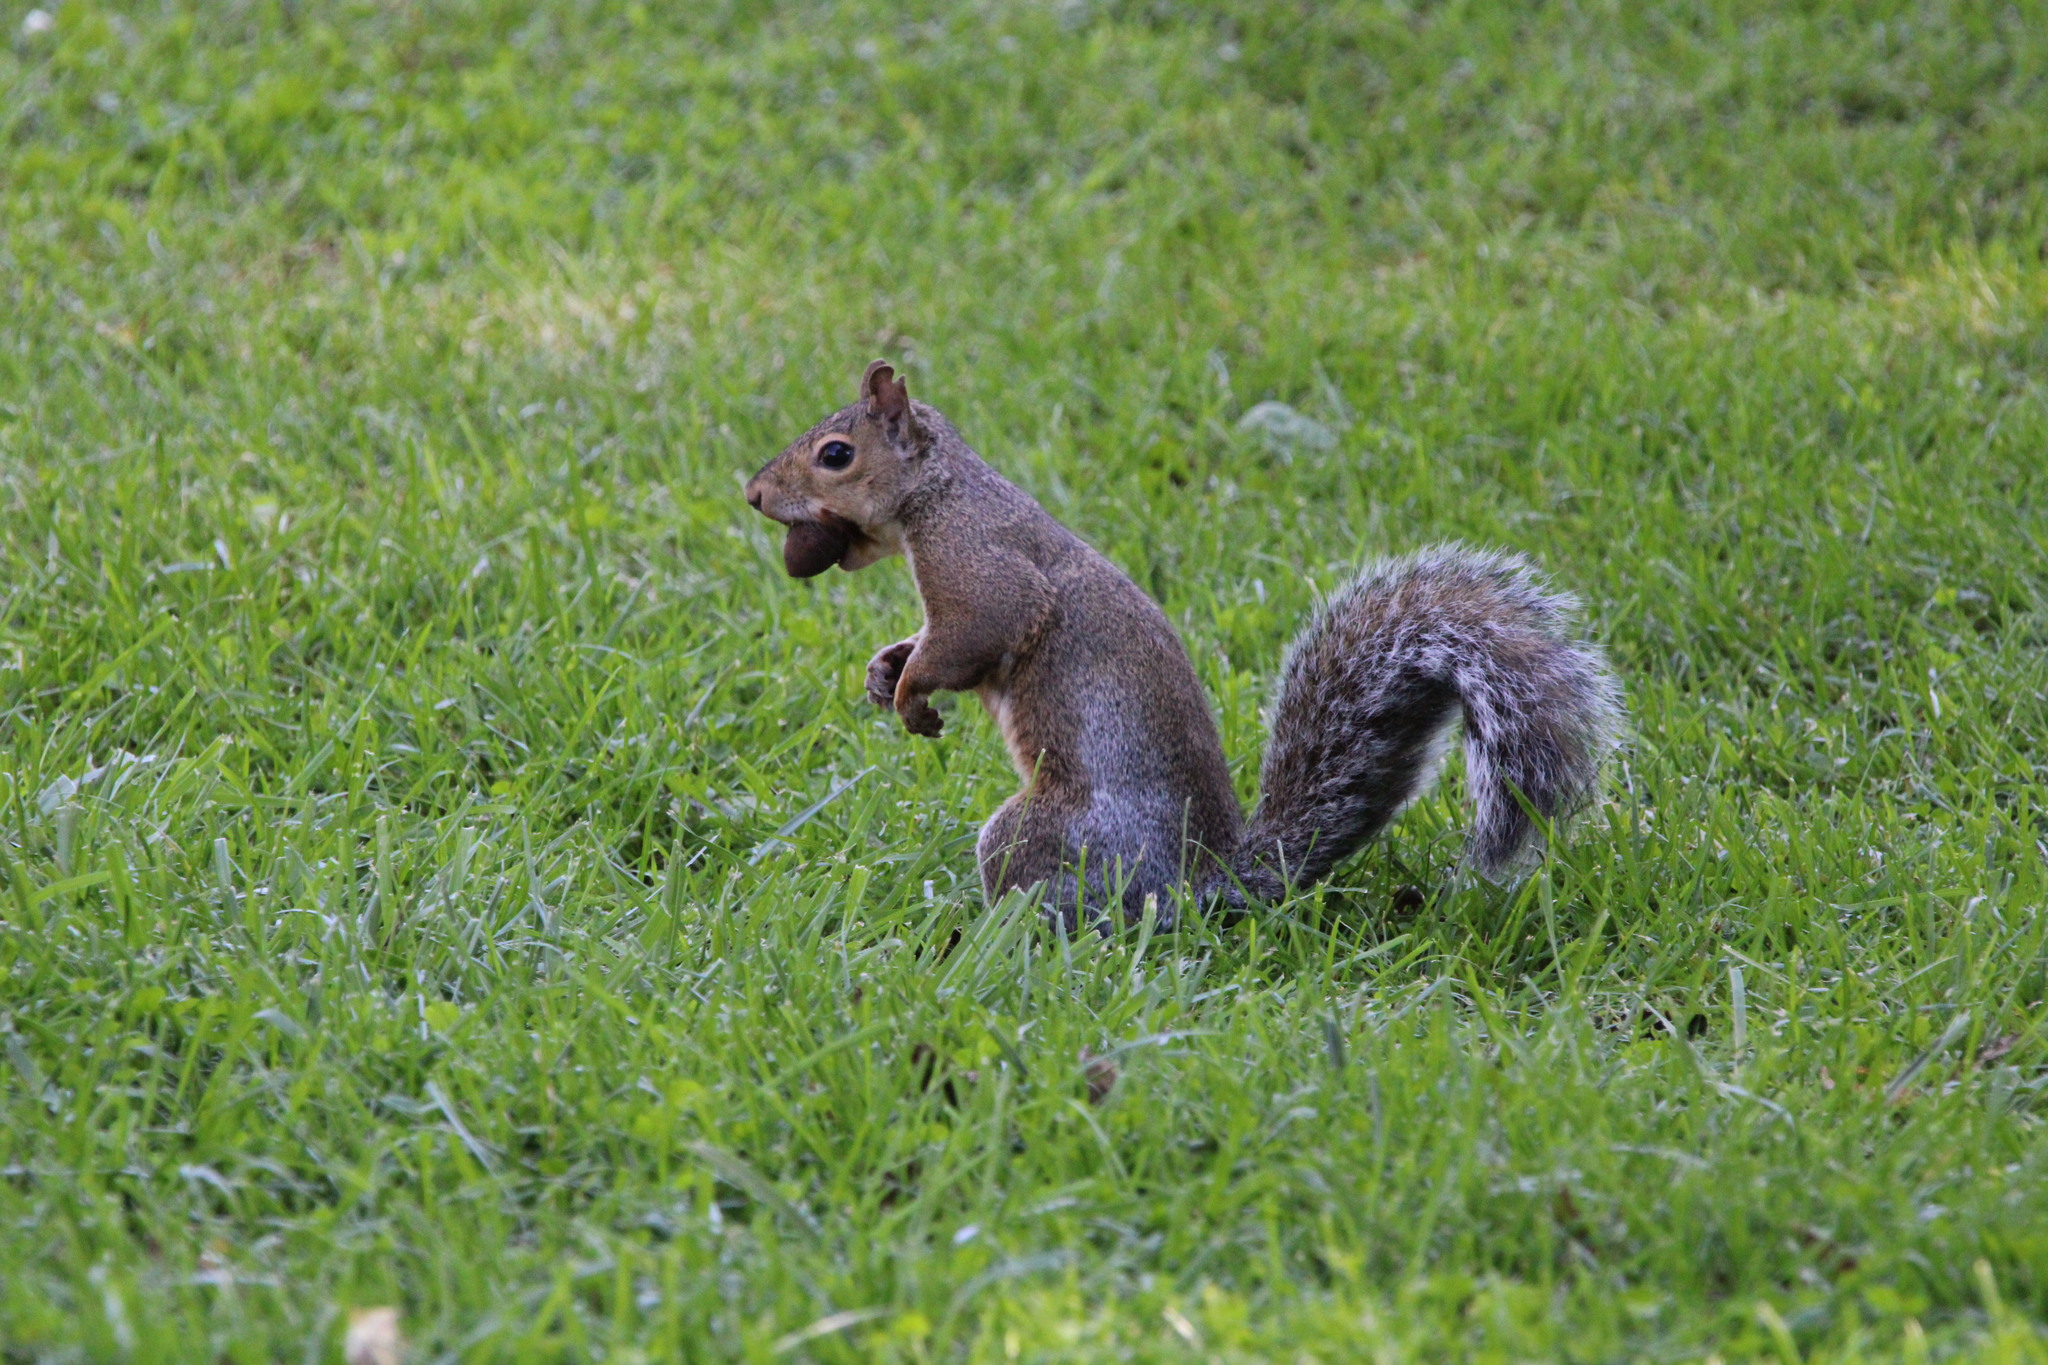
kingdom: Animalia
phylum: Chordata
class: Mammalia
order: Rodentia
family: Sciuridae
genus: Sciurus
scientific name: Sciurus carolinensis
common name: Eastern gray squirrel
